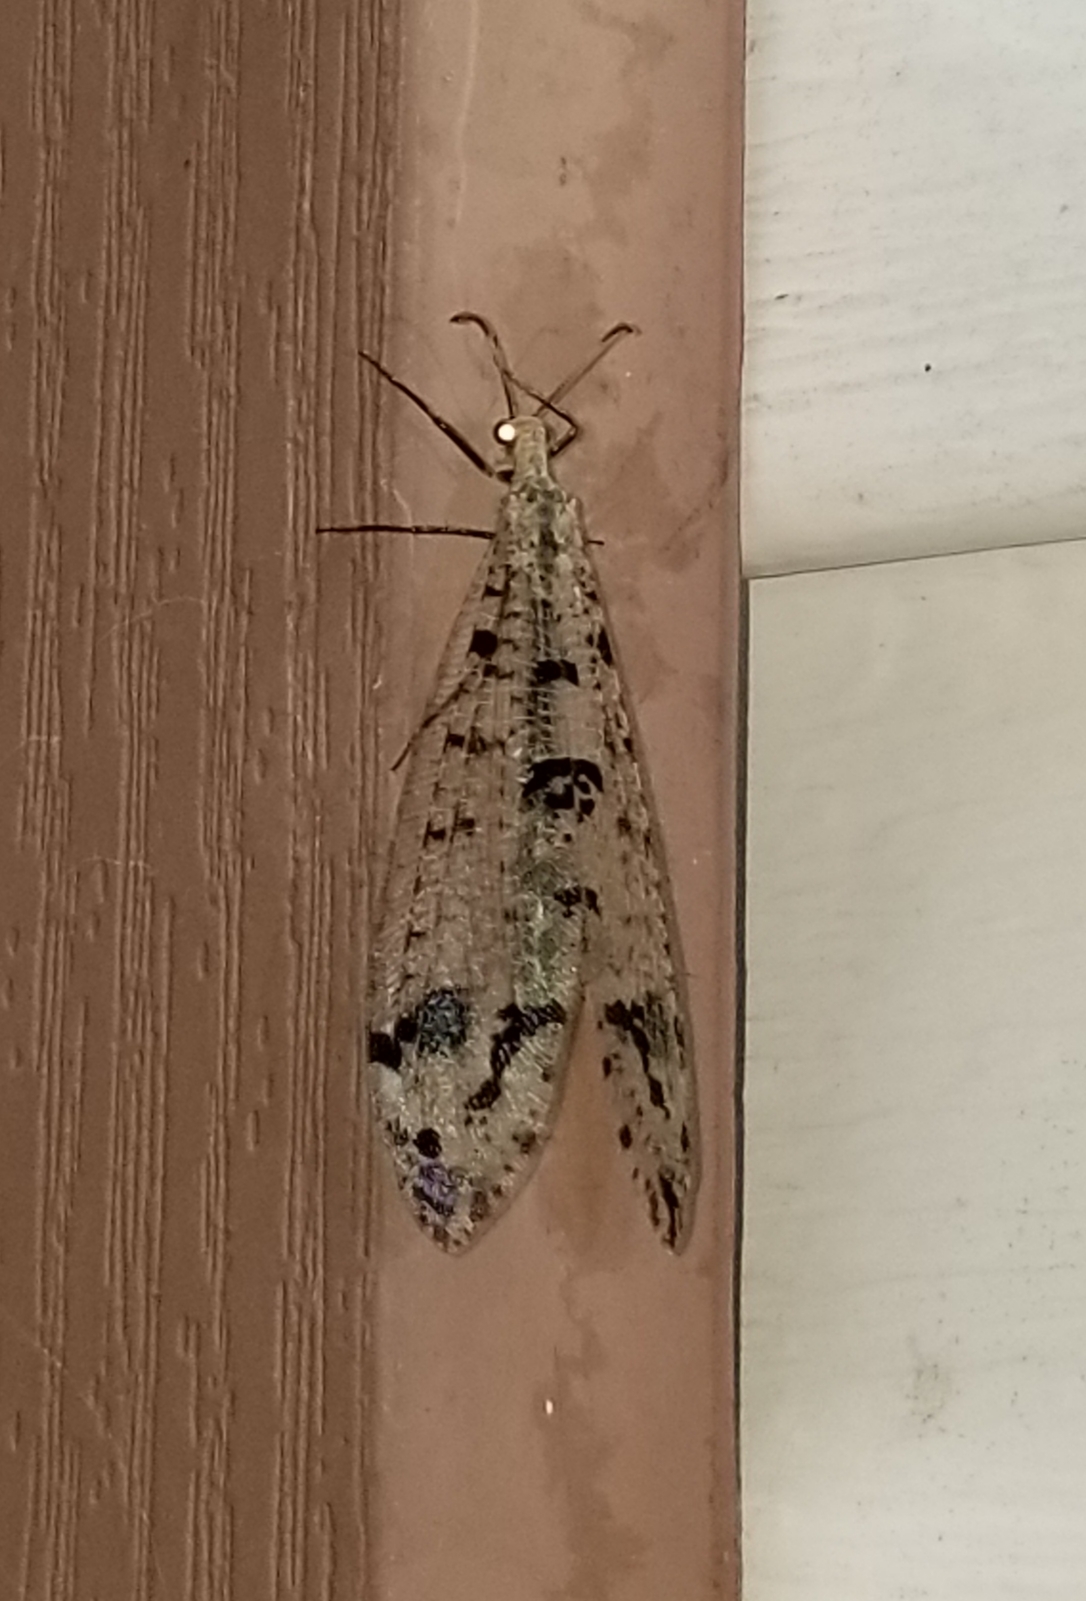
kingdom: Animalia
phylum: Arthropoda
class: Insecta
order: Neuroptera
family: Myrmeleontidae
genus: Dendroleon
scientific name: Dendroleon obsoletus
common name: Eastern spotted-winged antlion
